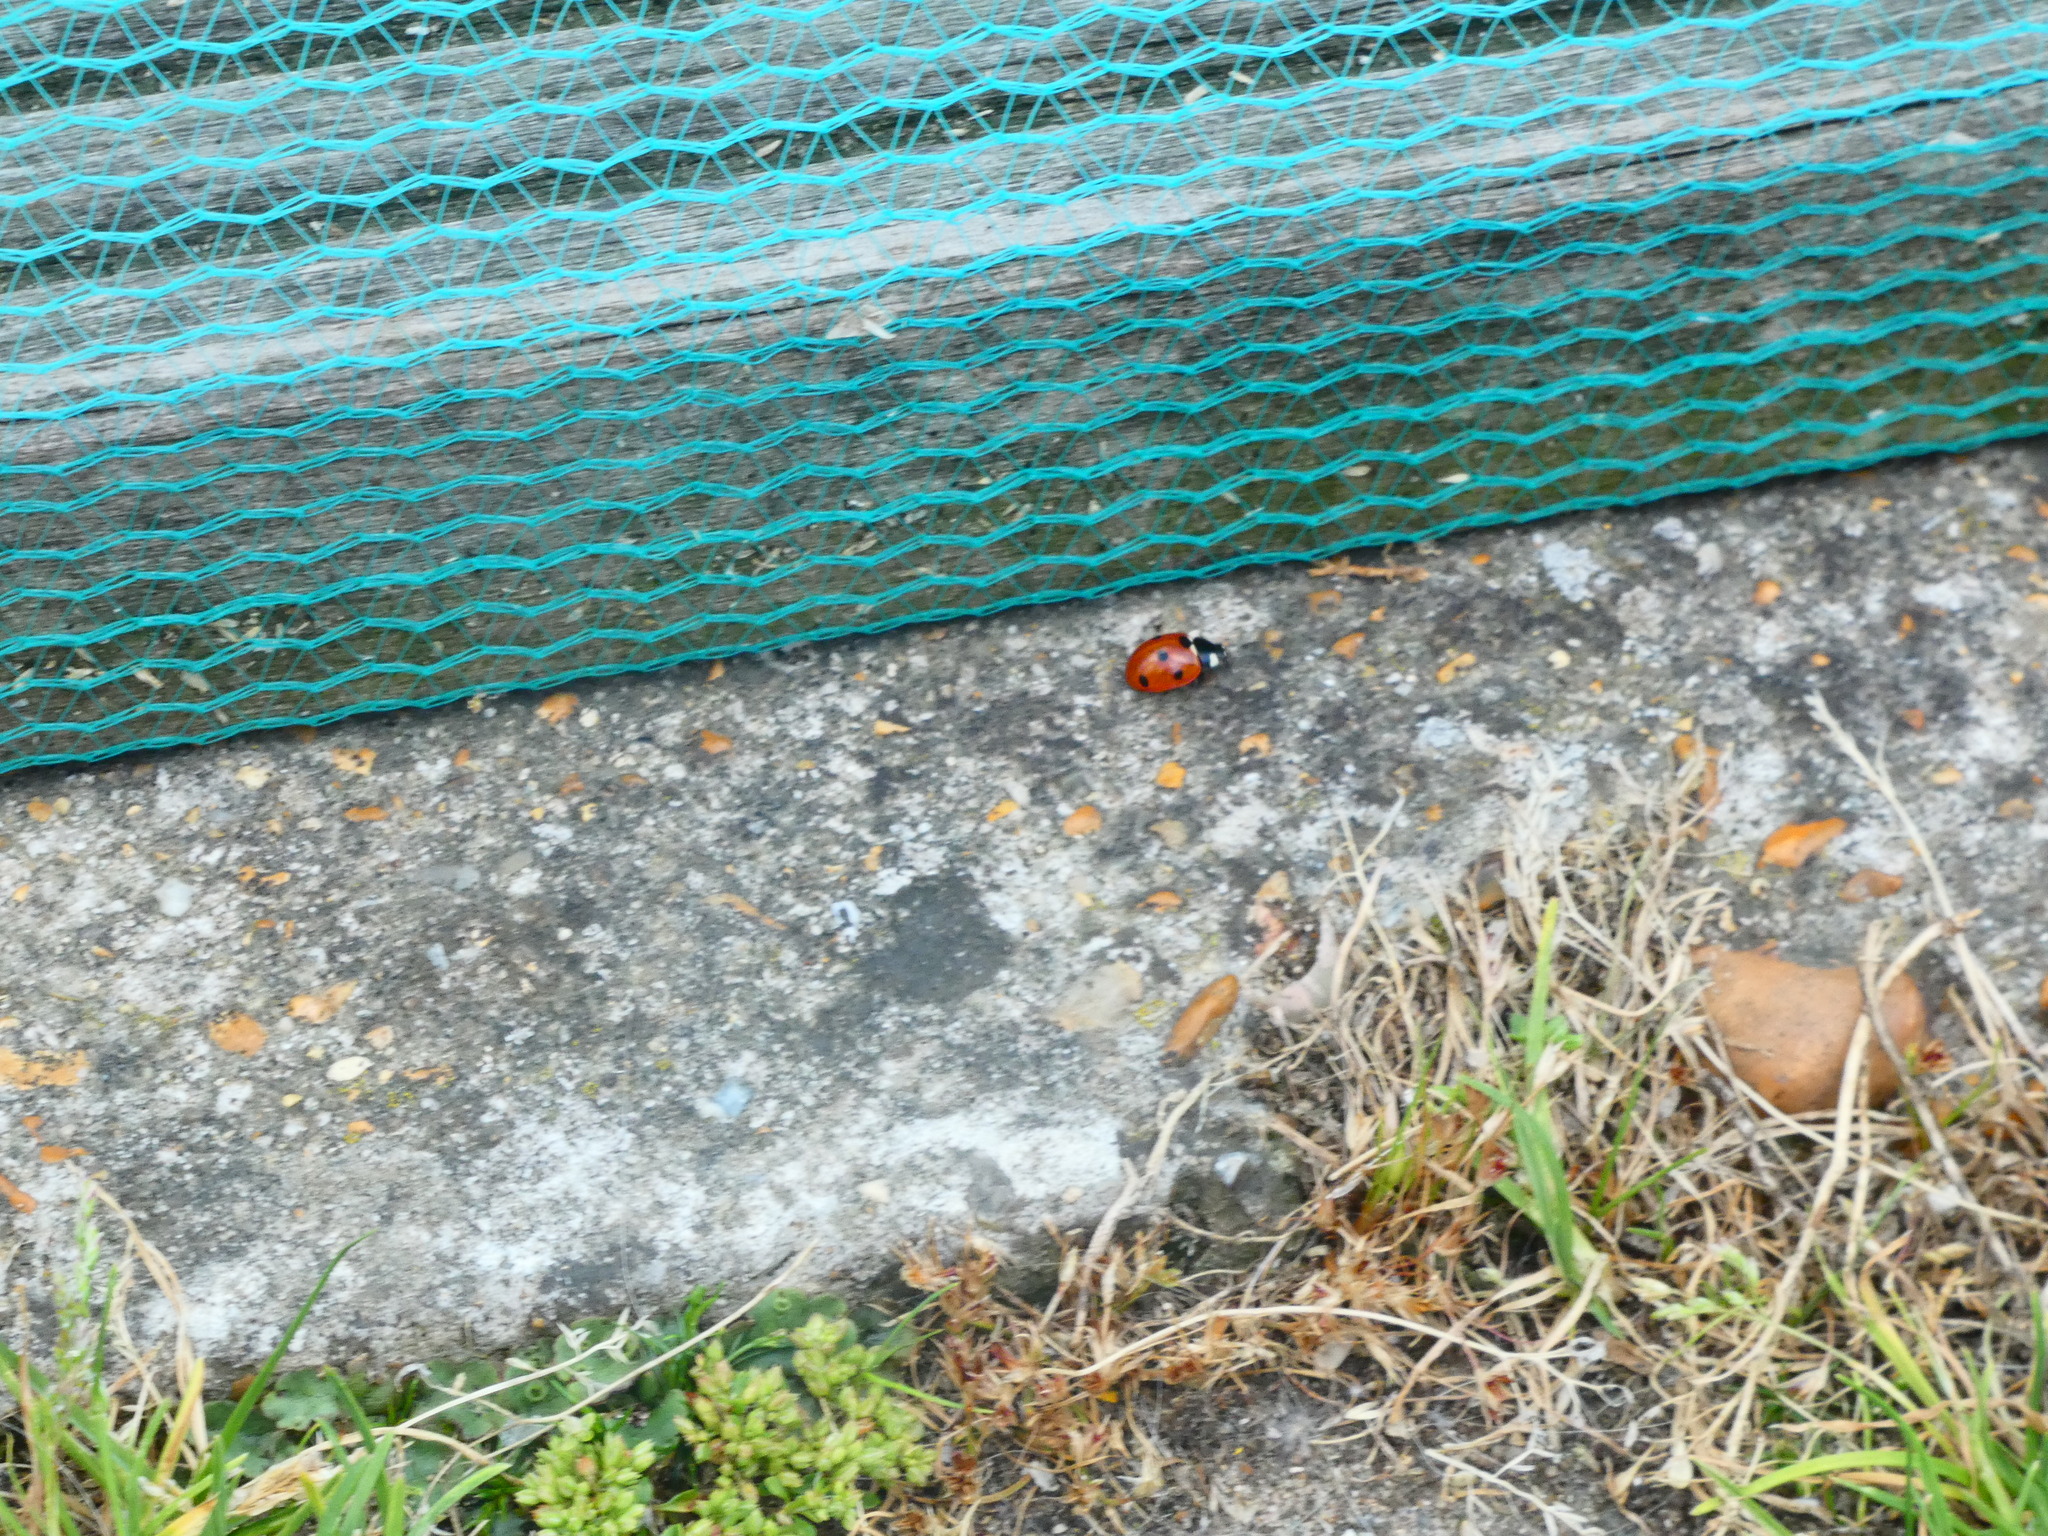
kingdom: Animalia
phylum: Arthropoda
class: Insecta
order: Coleoptera
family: Coccinellidae
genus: Coccinella
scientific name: Coccinella septempunctata
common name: Sevenspotted lady beetle
